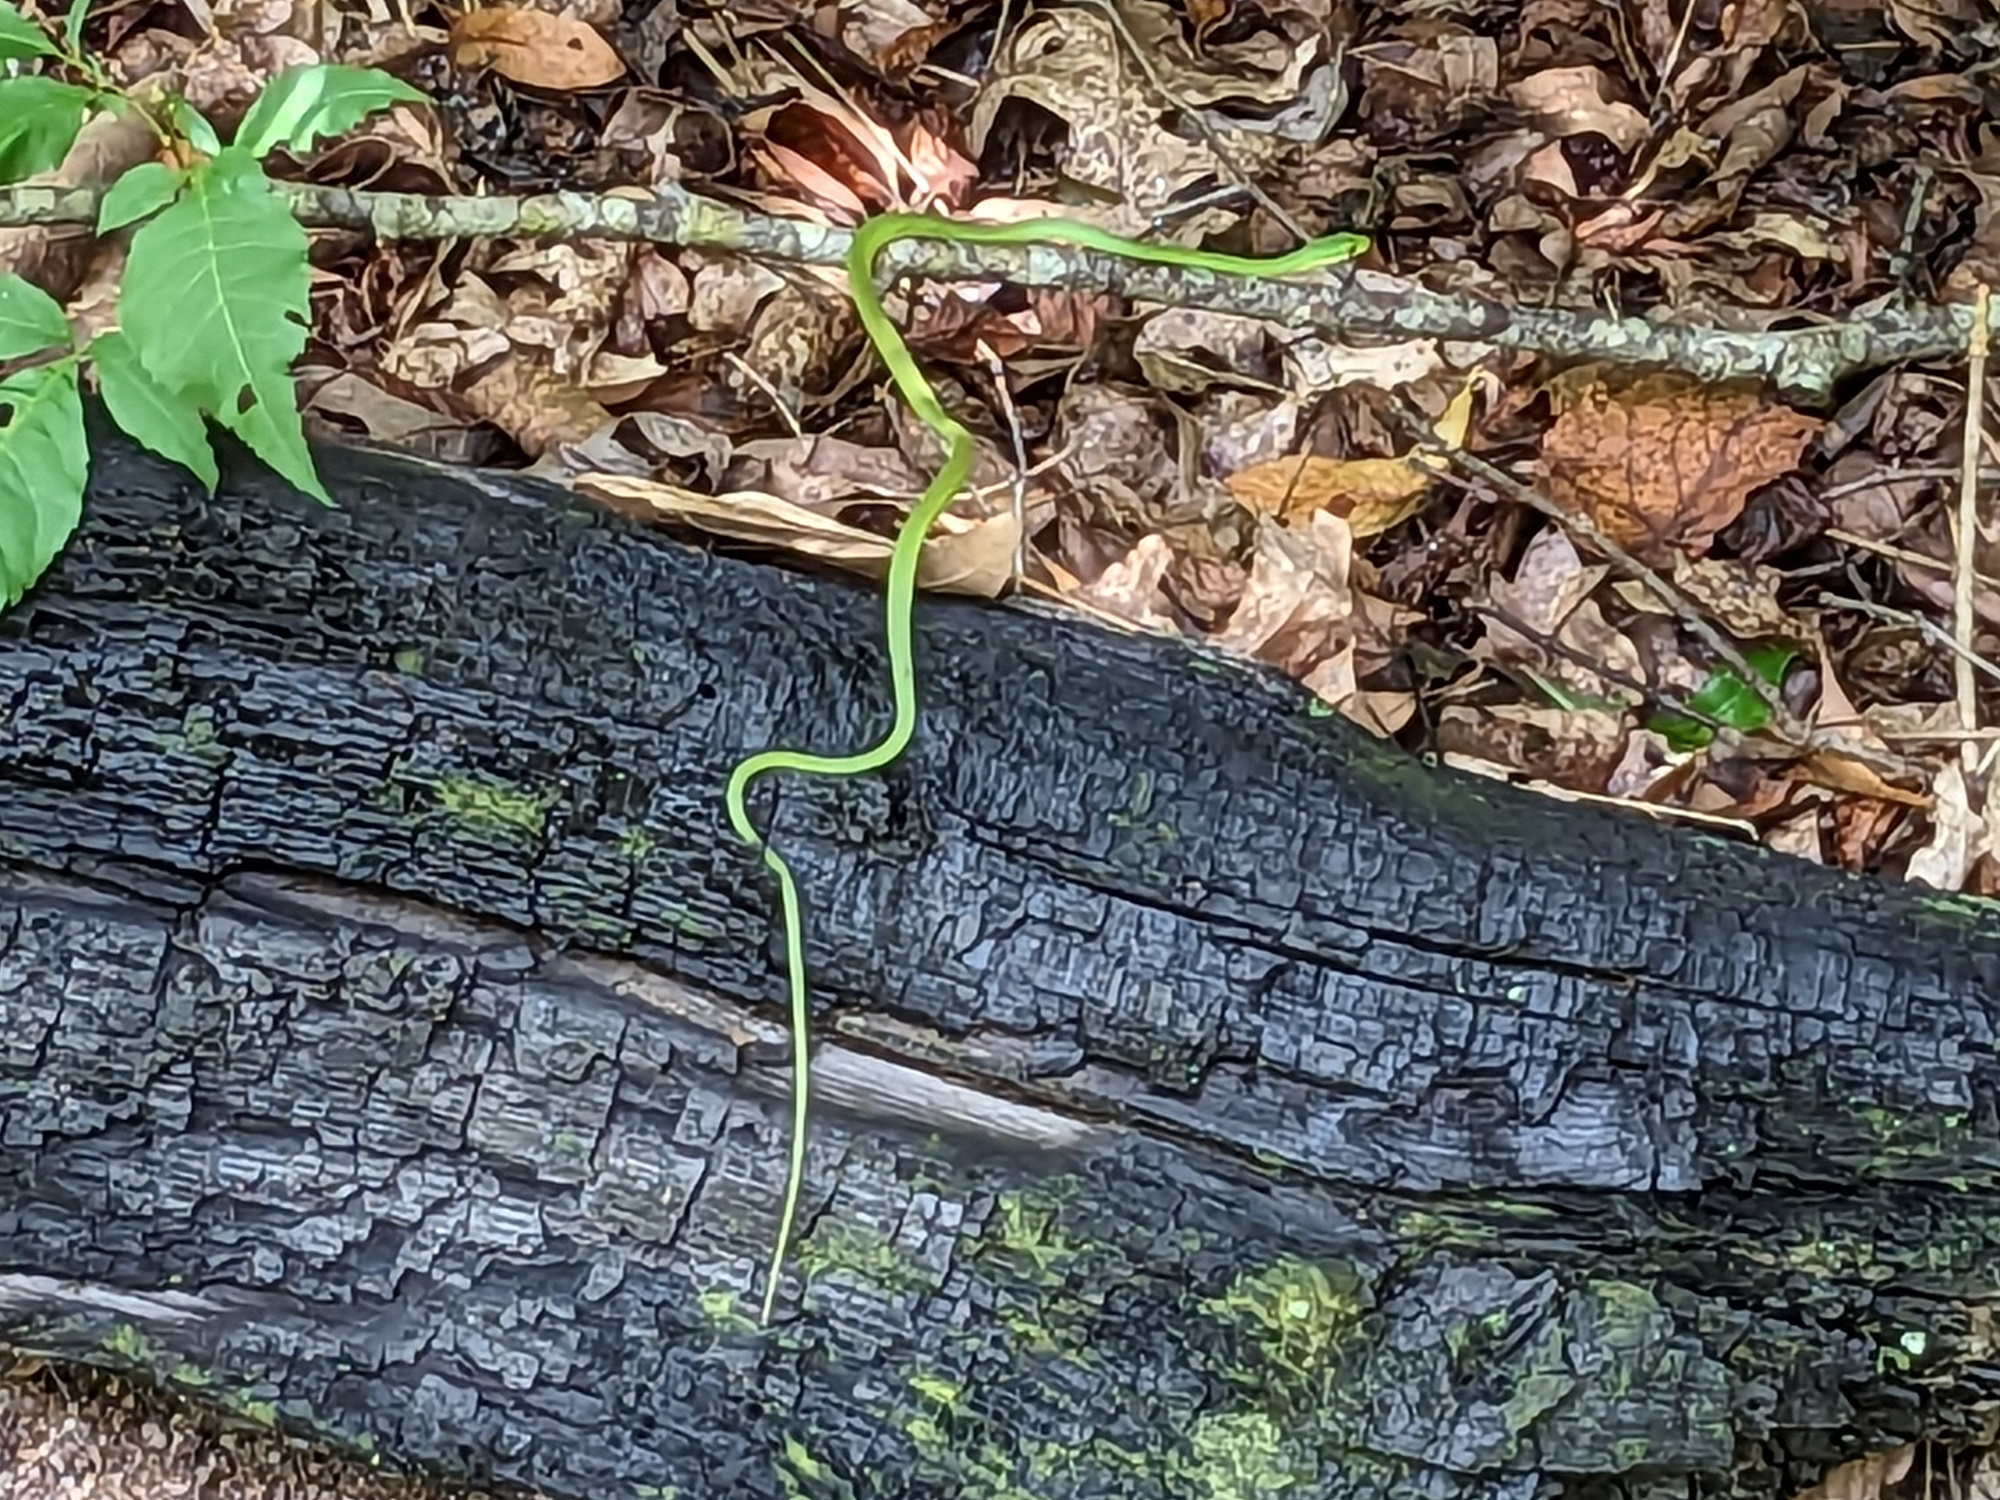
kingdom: Animalia
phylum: Chordata
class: Squamata
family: Colubridae
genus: Opheodrys
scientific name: Opheodrys aestivus
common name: Rough greensnake
